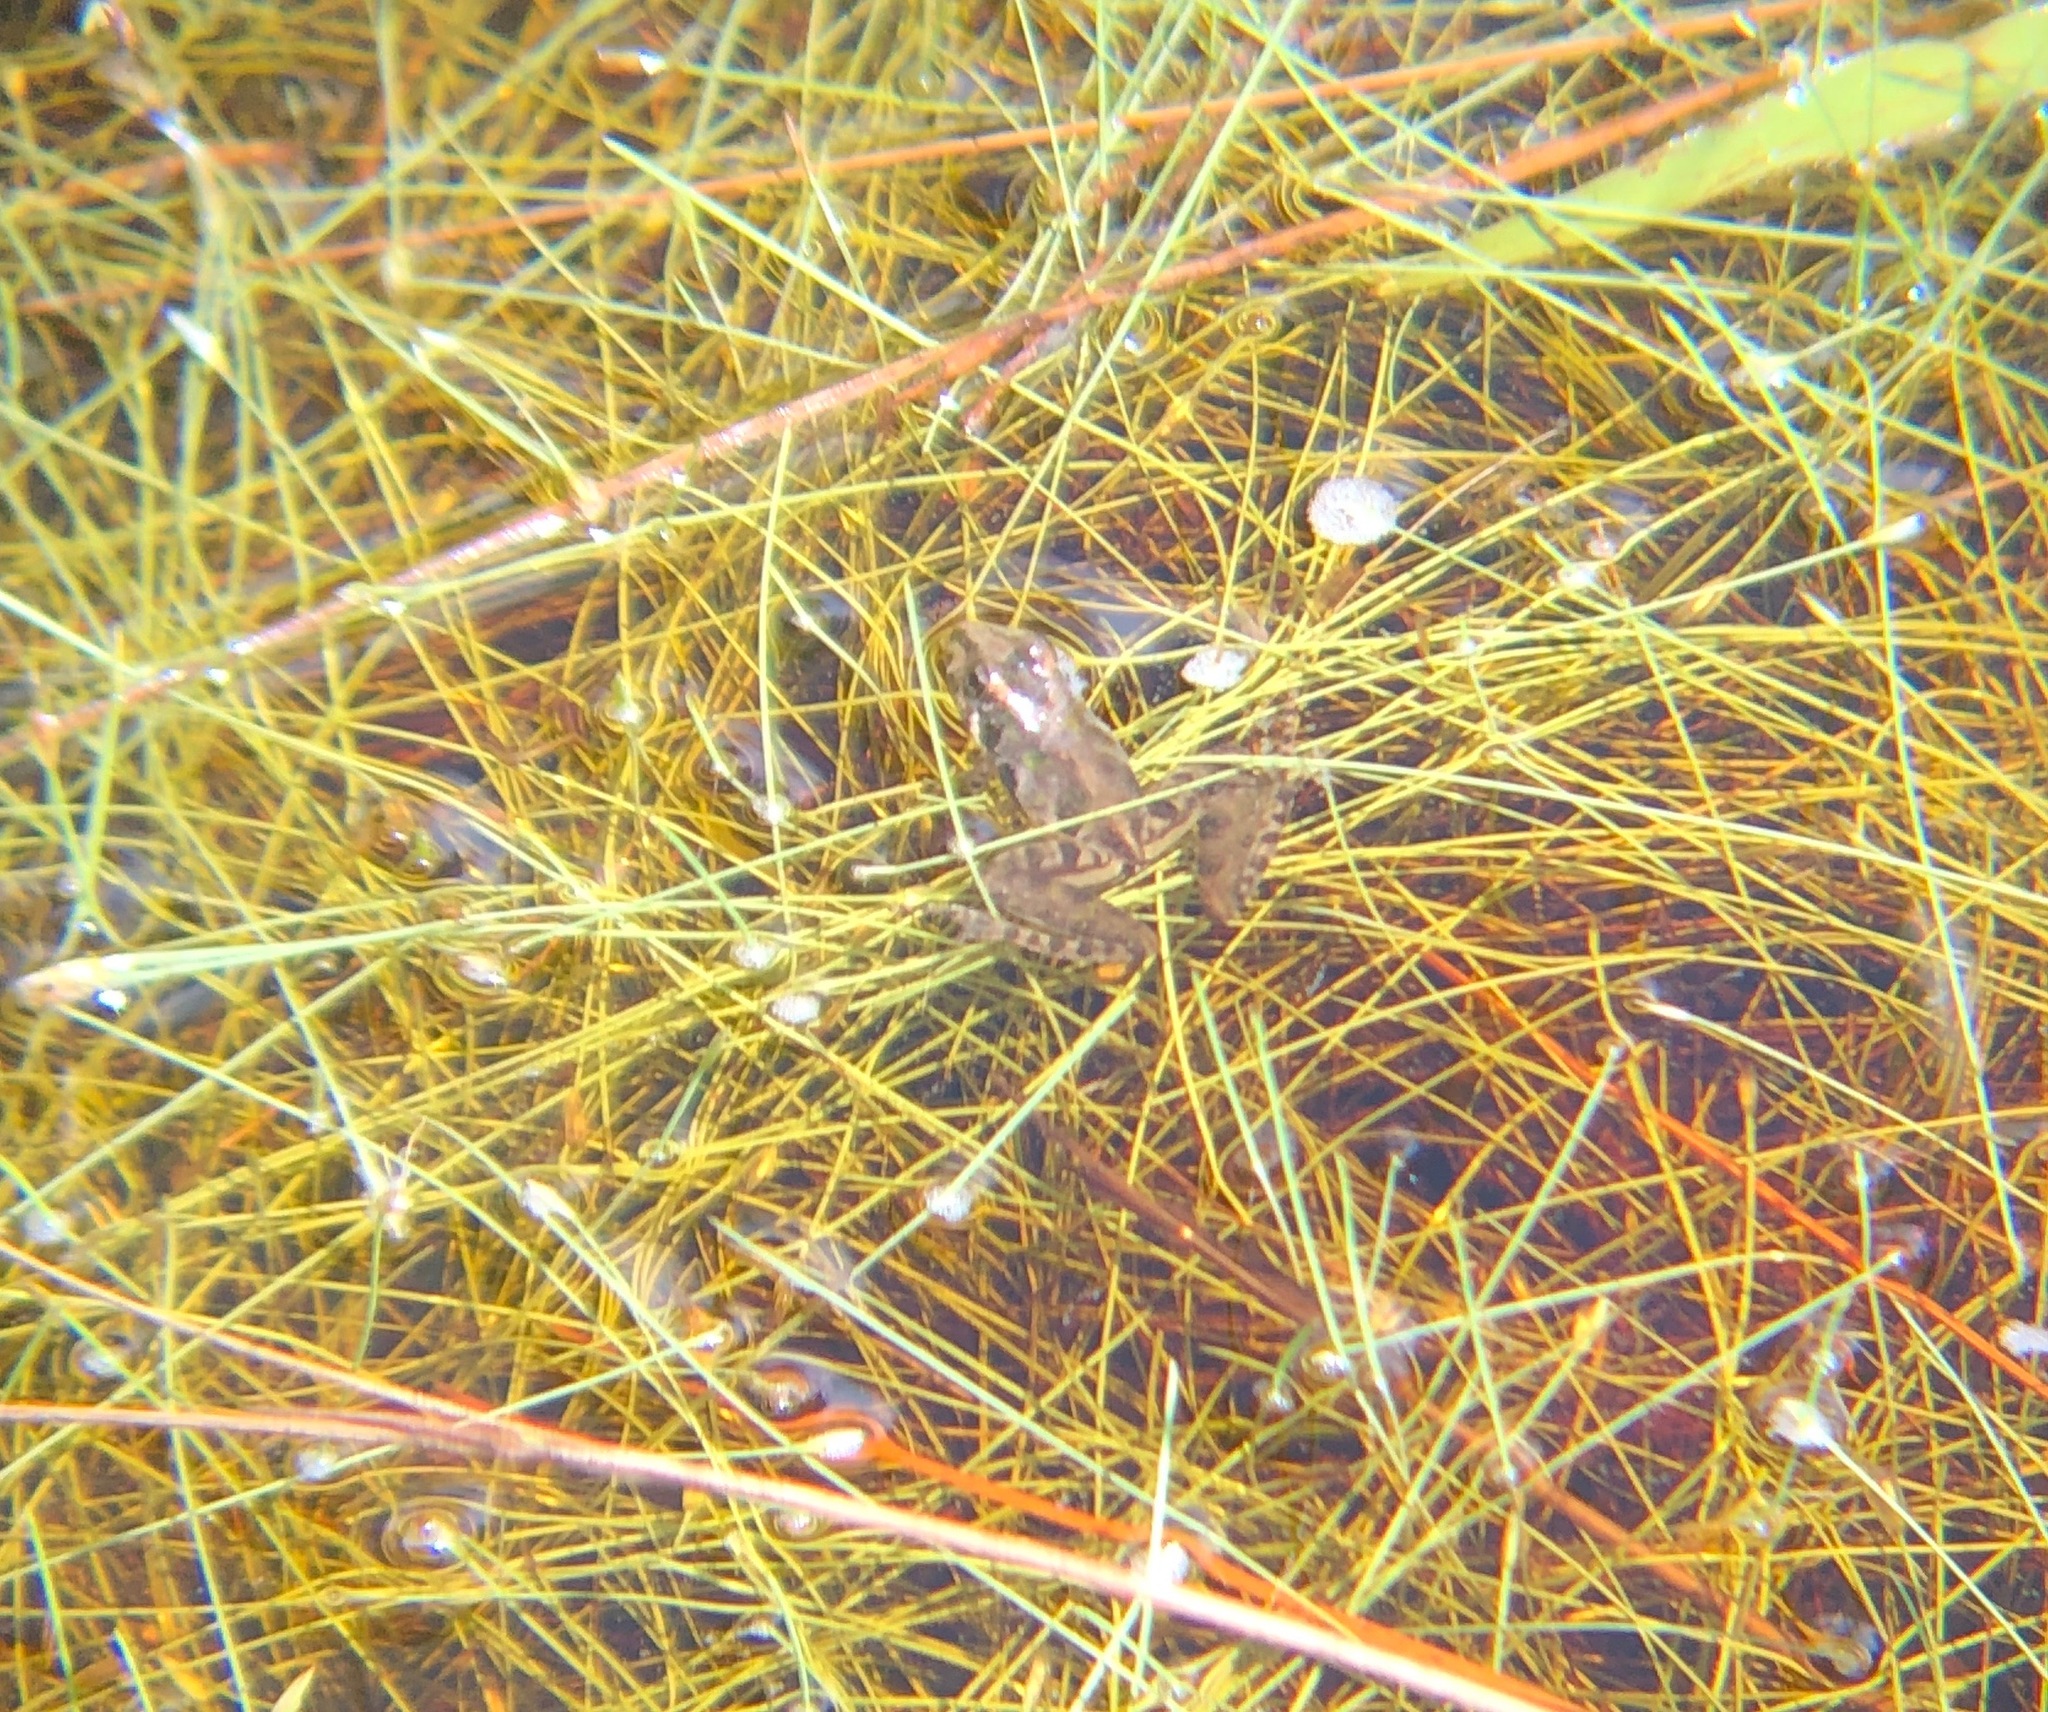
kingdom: Animalia
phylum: Chordata
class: Amphibia
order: Anura
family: Hylidae
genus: Acris
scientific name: Acris gryllus
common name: Southern cricket frog
